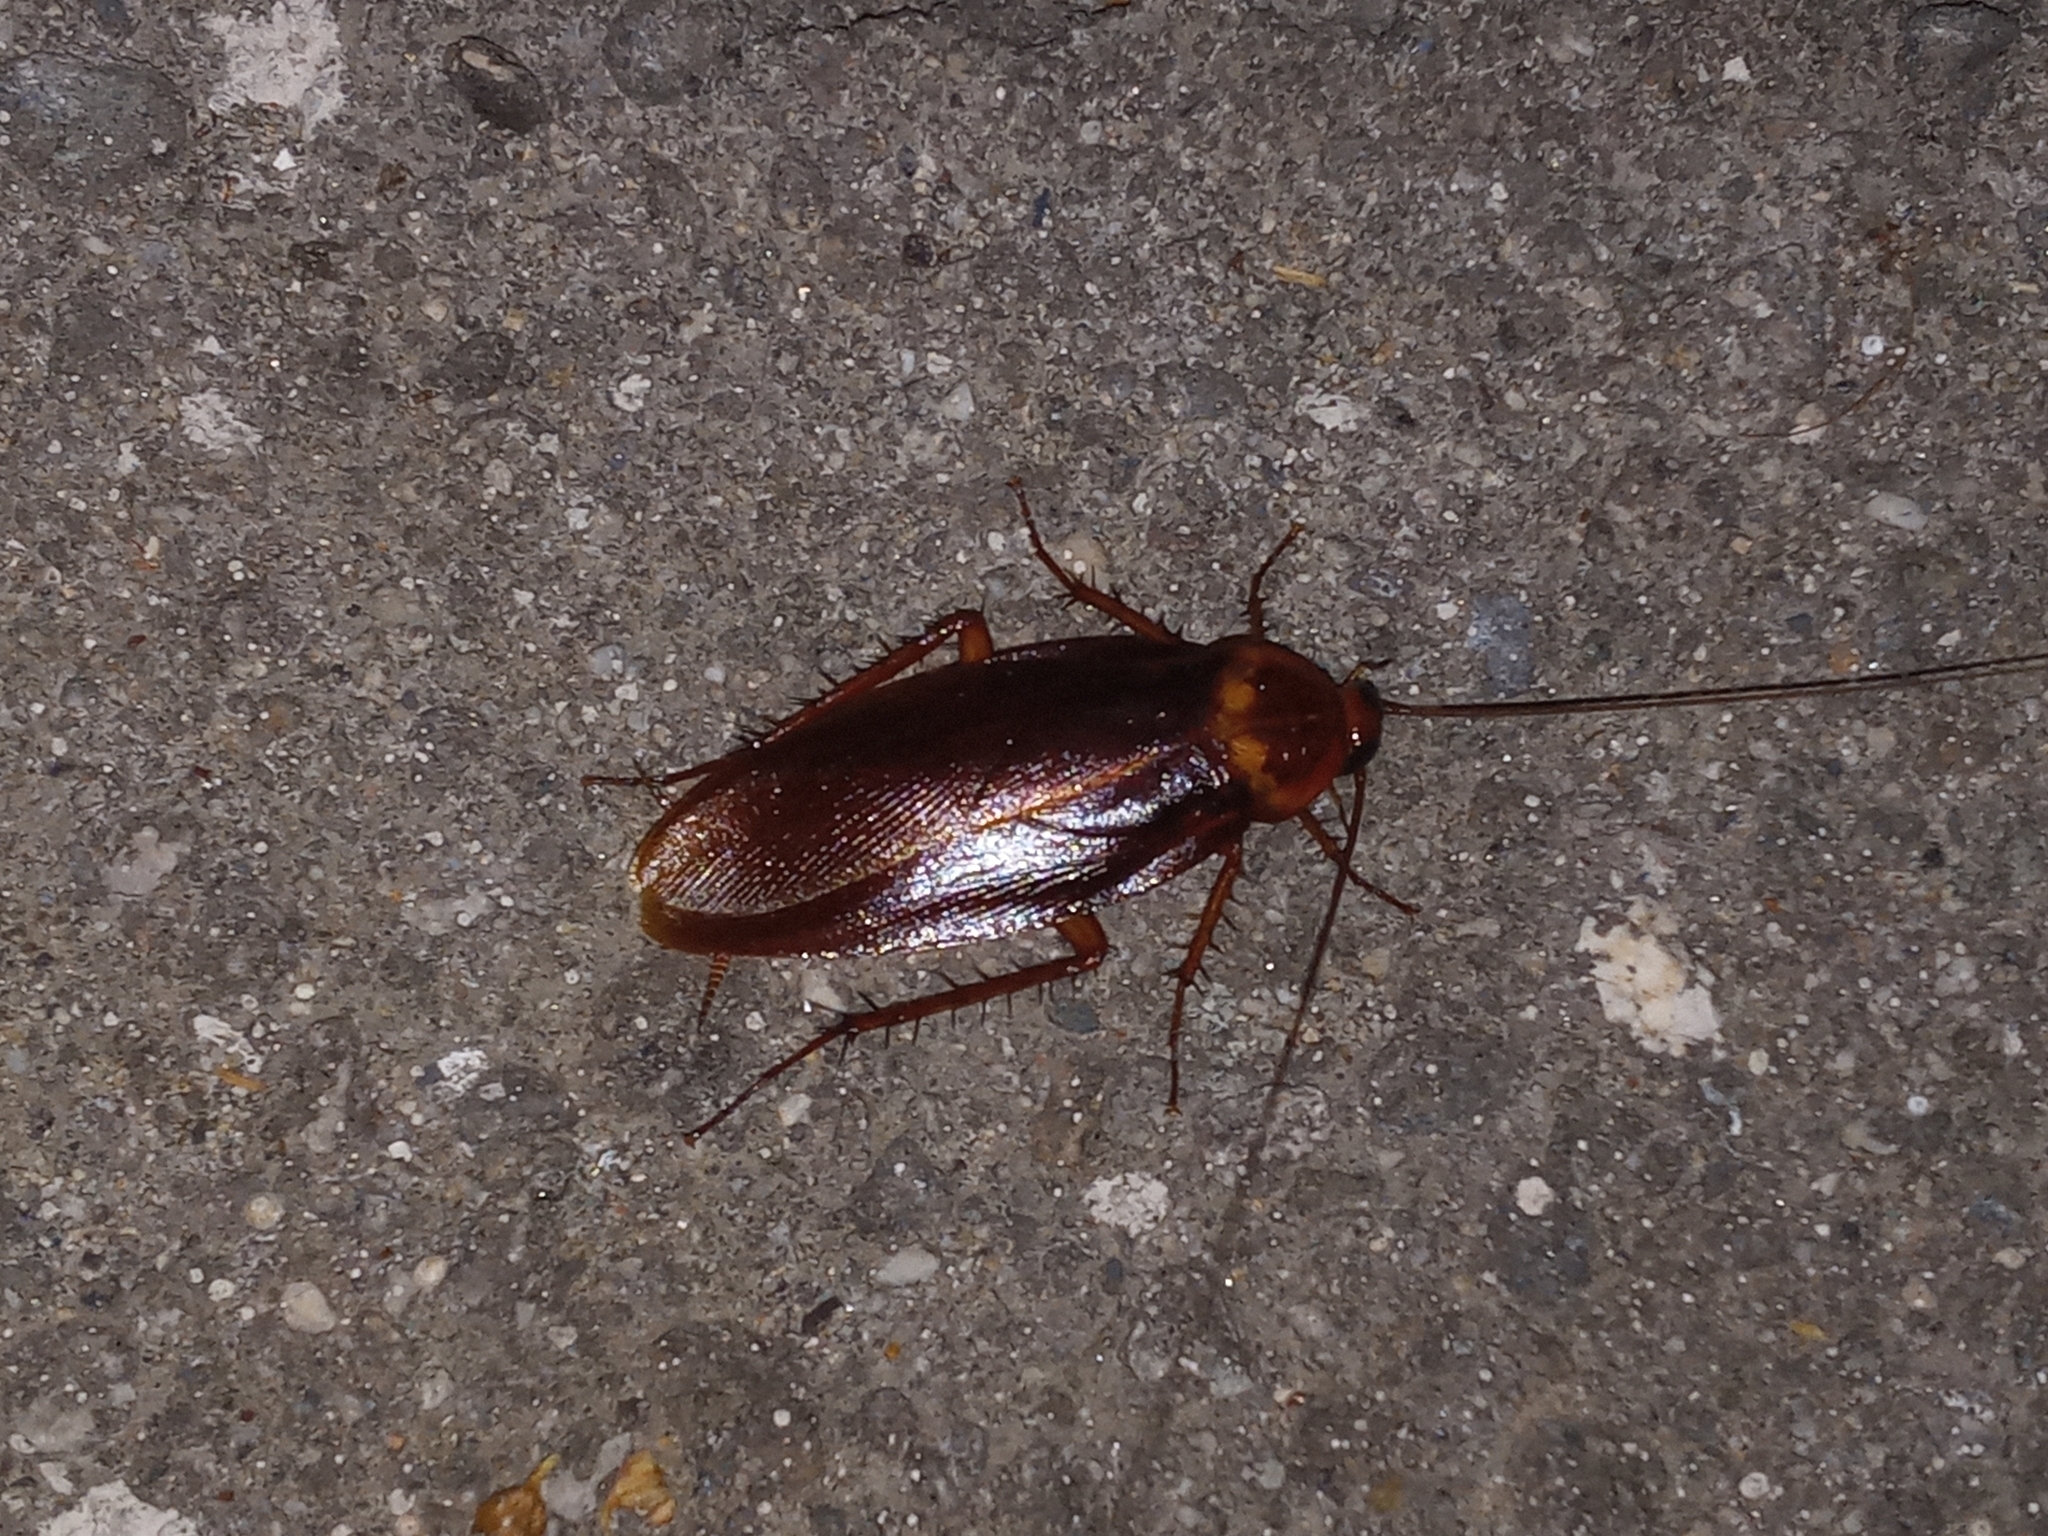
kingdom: Animalia
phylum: Arthropoda
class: Insecta
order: Blattodea
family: Blattidae
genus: Periplaneta
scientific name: Periplaneta americana
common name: American cockroach
